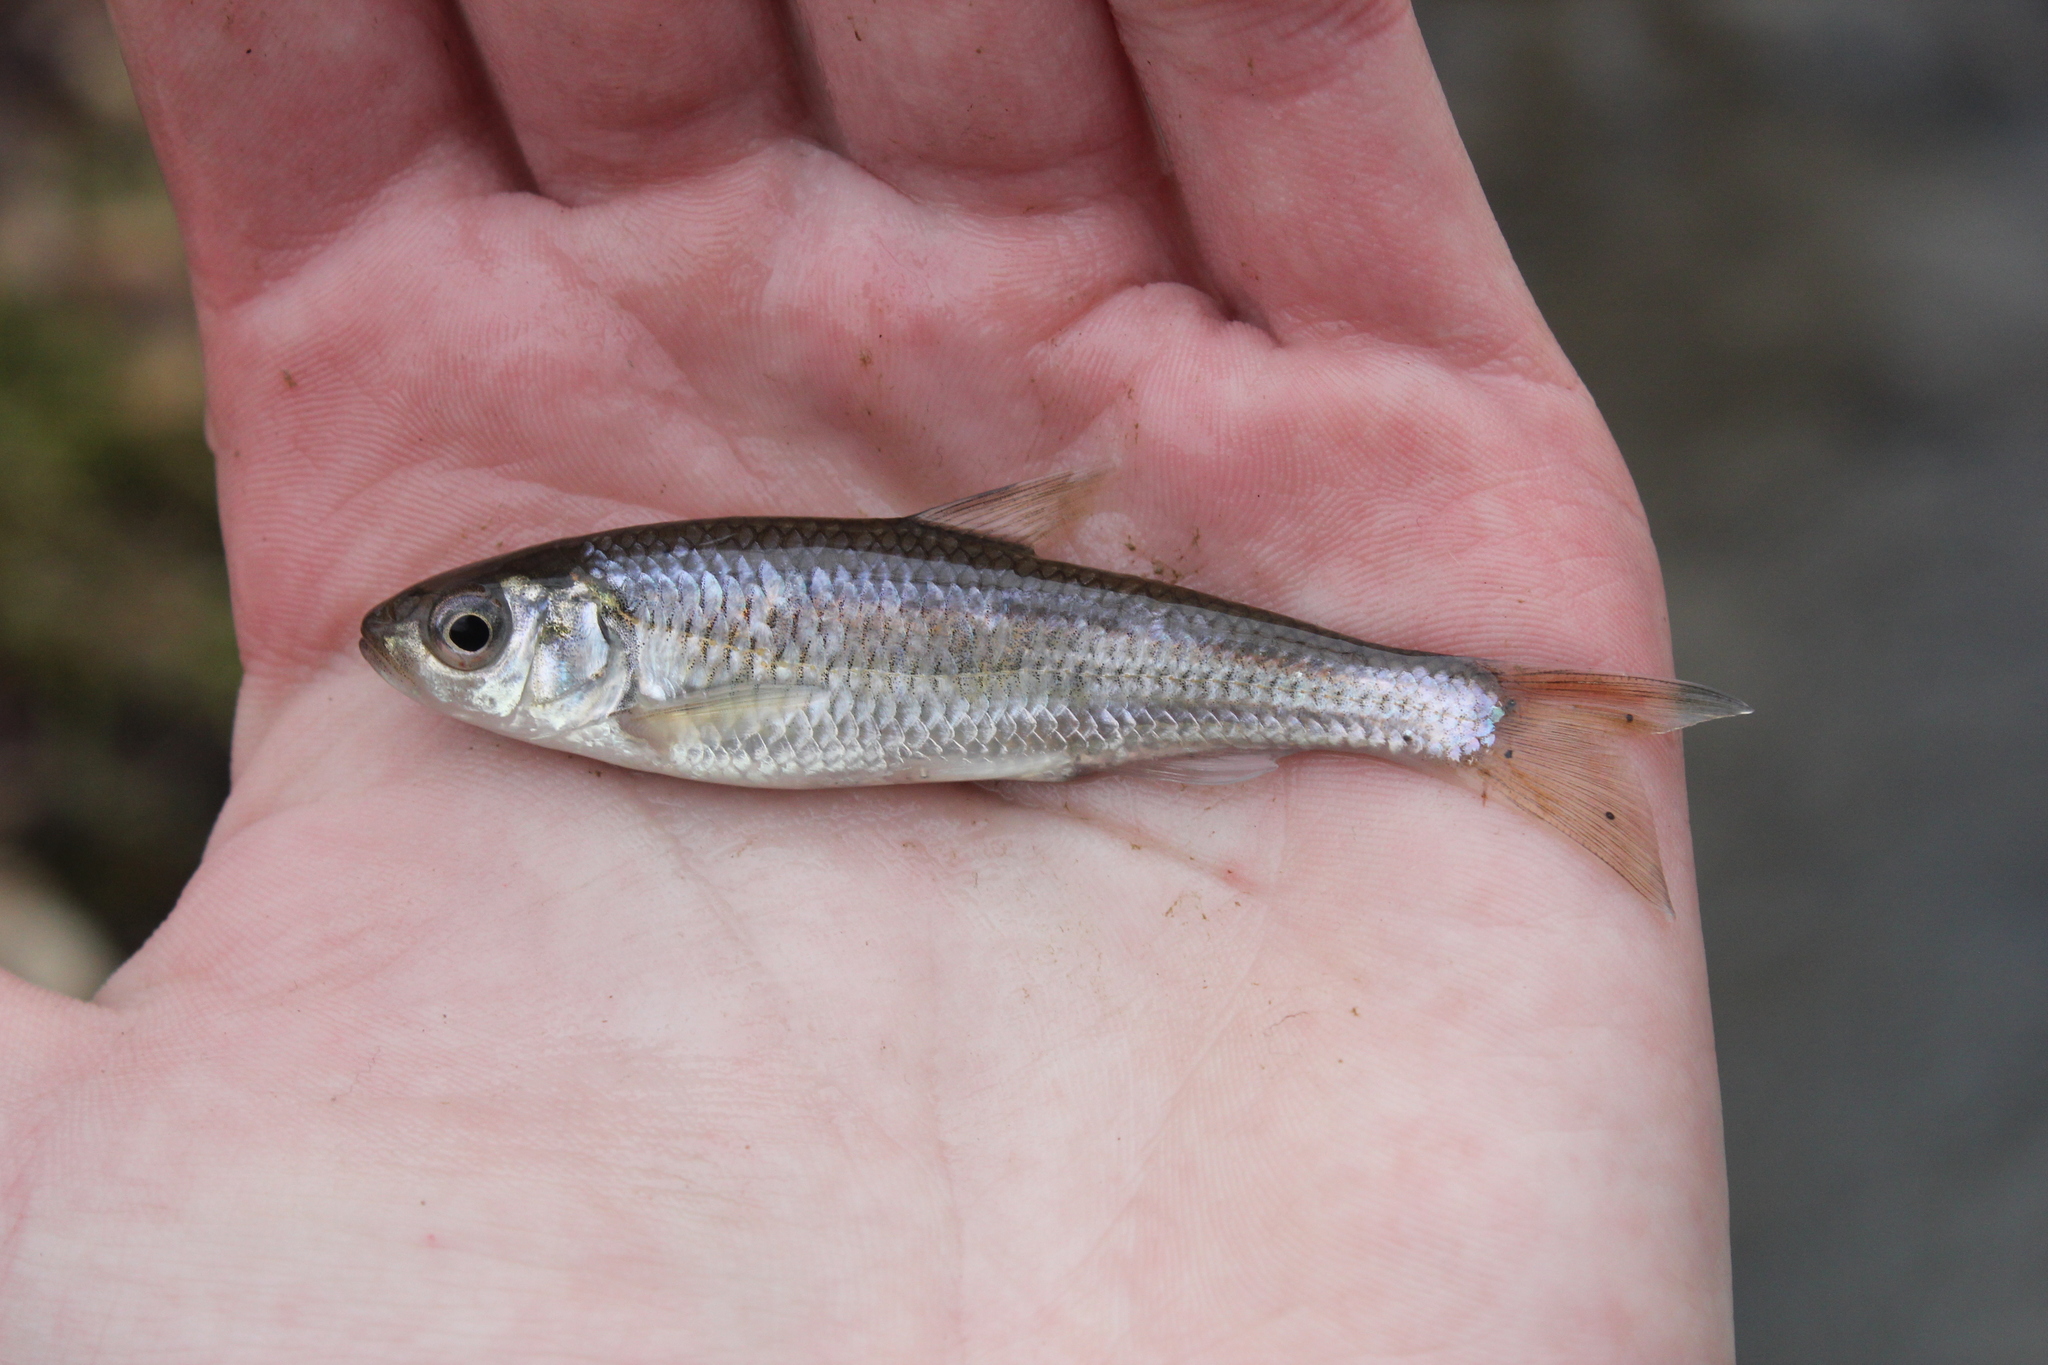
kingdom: Animalia
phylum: Chordata
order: Cypriniformes
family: Cyprinidae
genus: Luxilus
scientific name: Luxilus chrysocephalus
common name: Striped shiner
